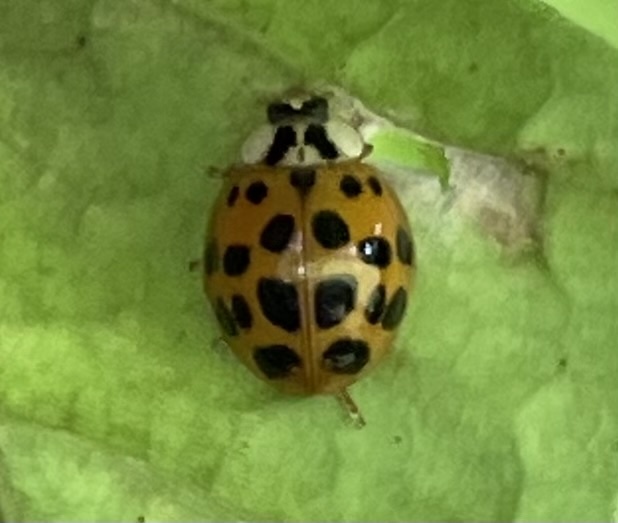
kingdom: Animalia
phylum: Arthropoda
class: Insecta
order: Coleoptera
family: Coccinellidae
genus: Harmonia
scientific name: Harmonia axyridis
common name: Harlequin ladybird
